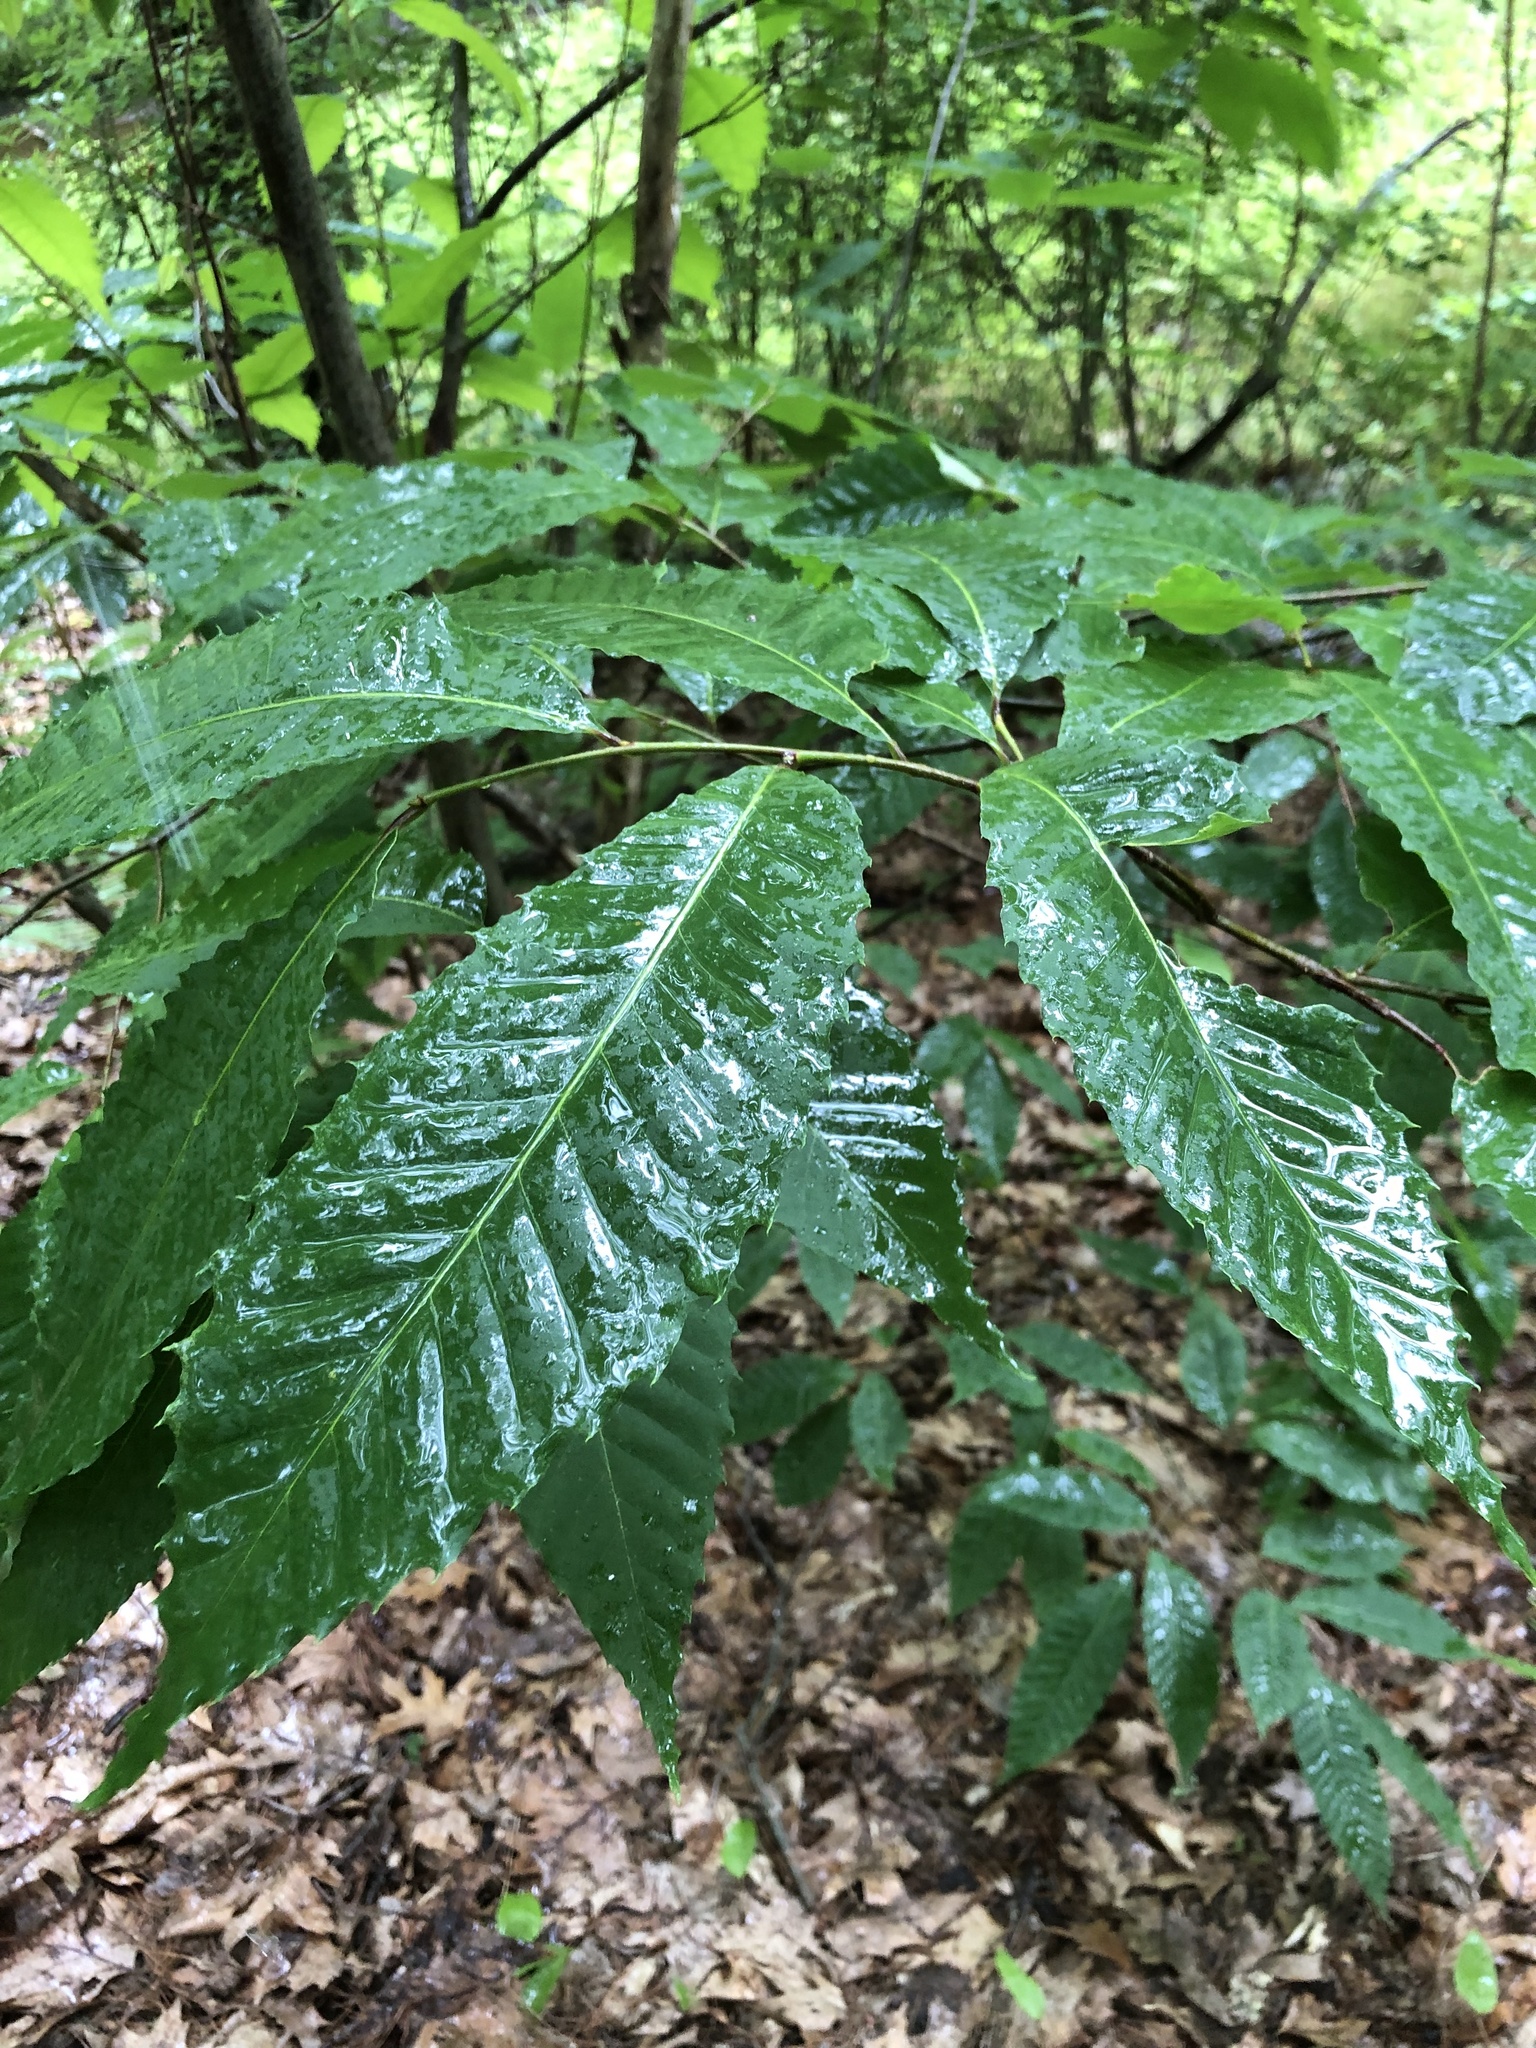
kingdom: Plantae
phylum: Tracheophyta
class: Magnoliopsida
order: Fagales
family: Fagaceae
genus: Castanea
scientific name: Castanea dentata
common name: American chestnut
